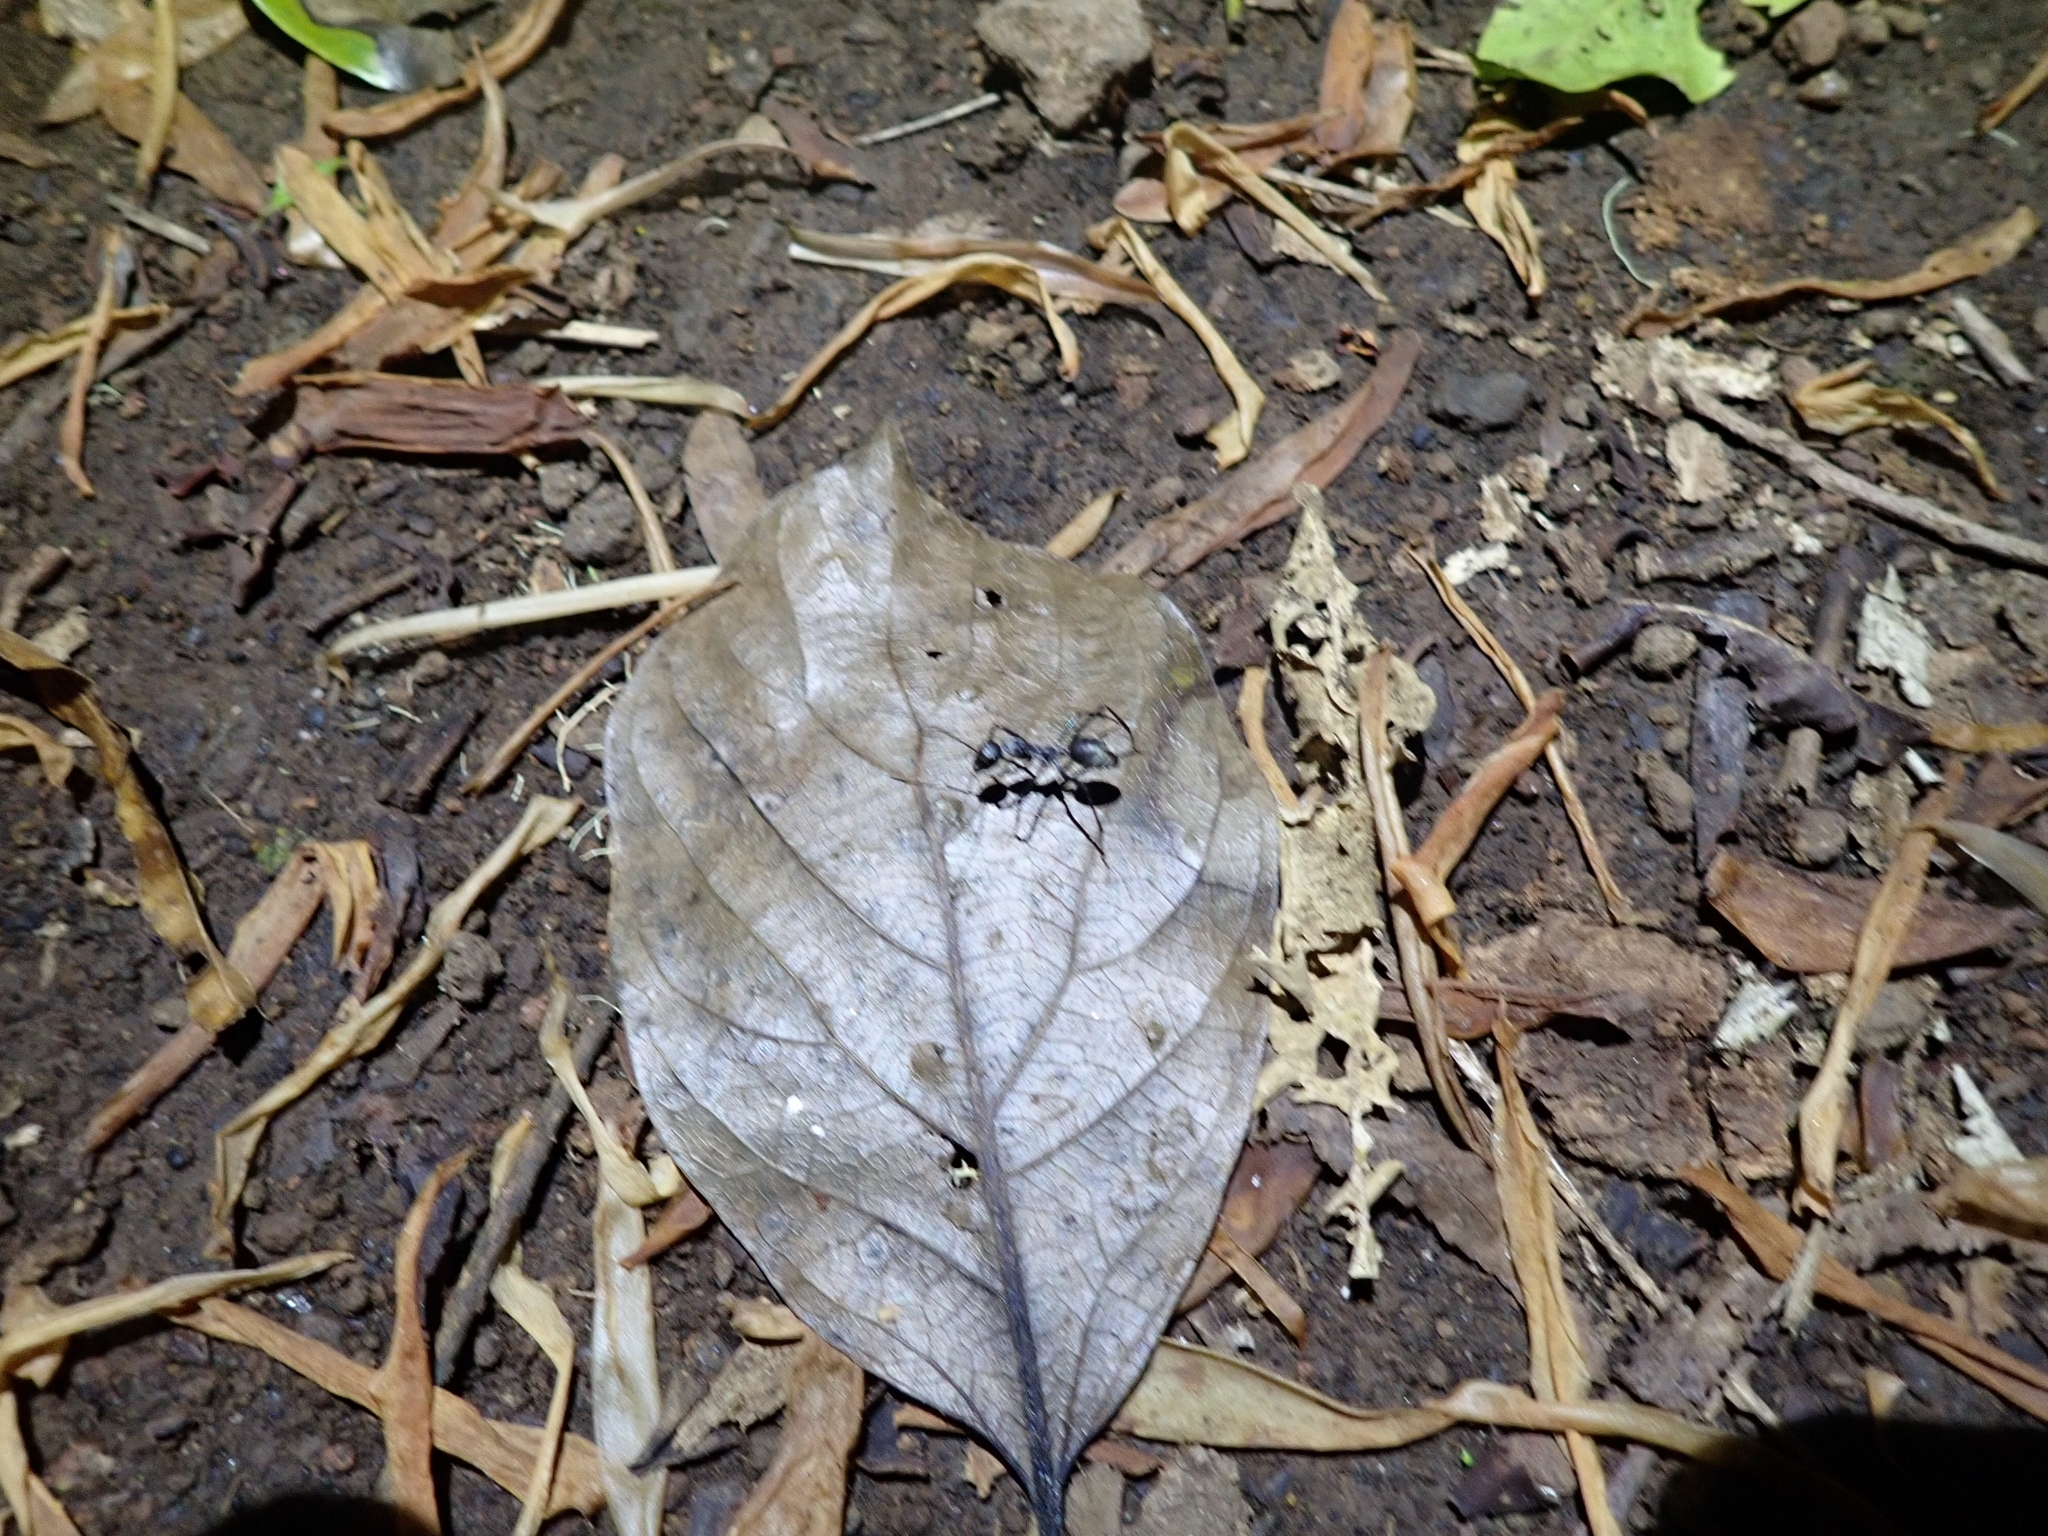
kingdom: Animalia
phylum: Arthropoda
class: Insecta
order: Hymenoptera
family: Formicidae
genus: Notostigma
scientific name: Notostigma carazzii
